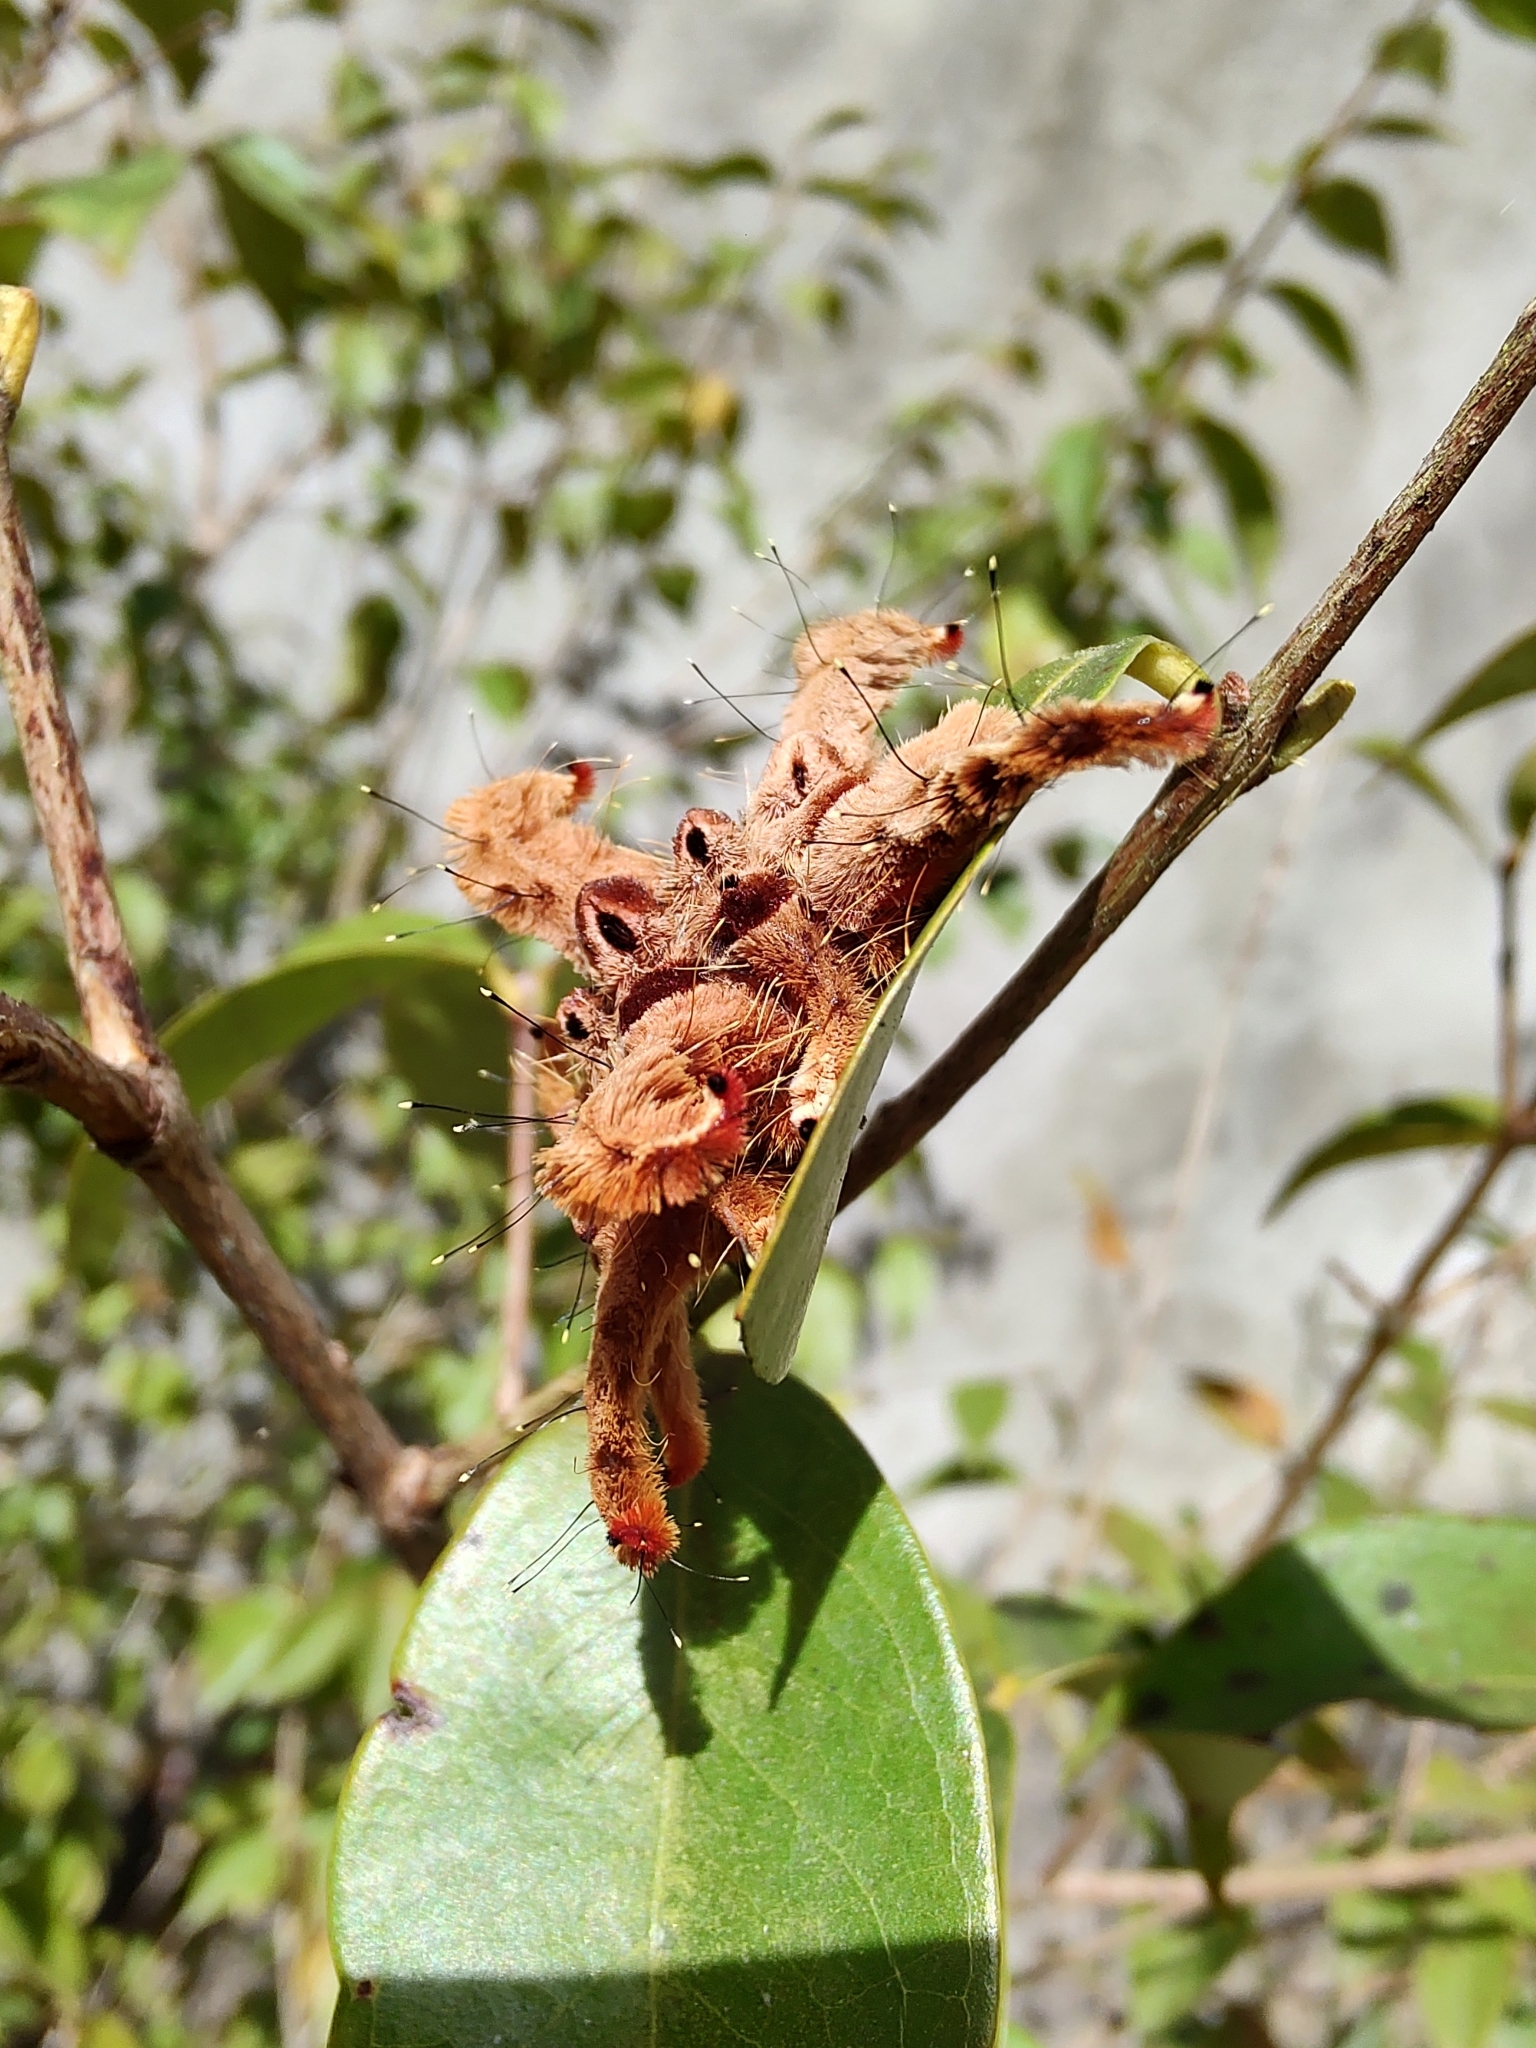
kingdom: Animalia
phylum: Arthropoda
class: Insecta
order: Lepidoptera
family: Limacodidae
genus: Phobetron
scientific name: Phobetron hipparchia
